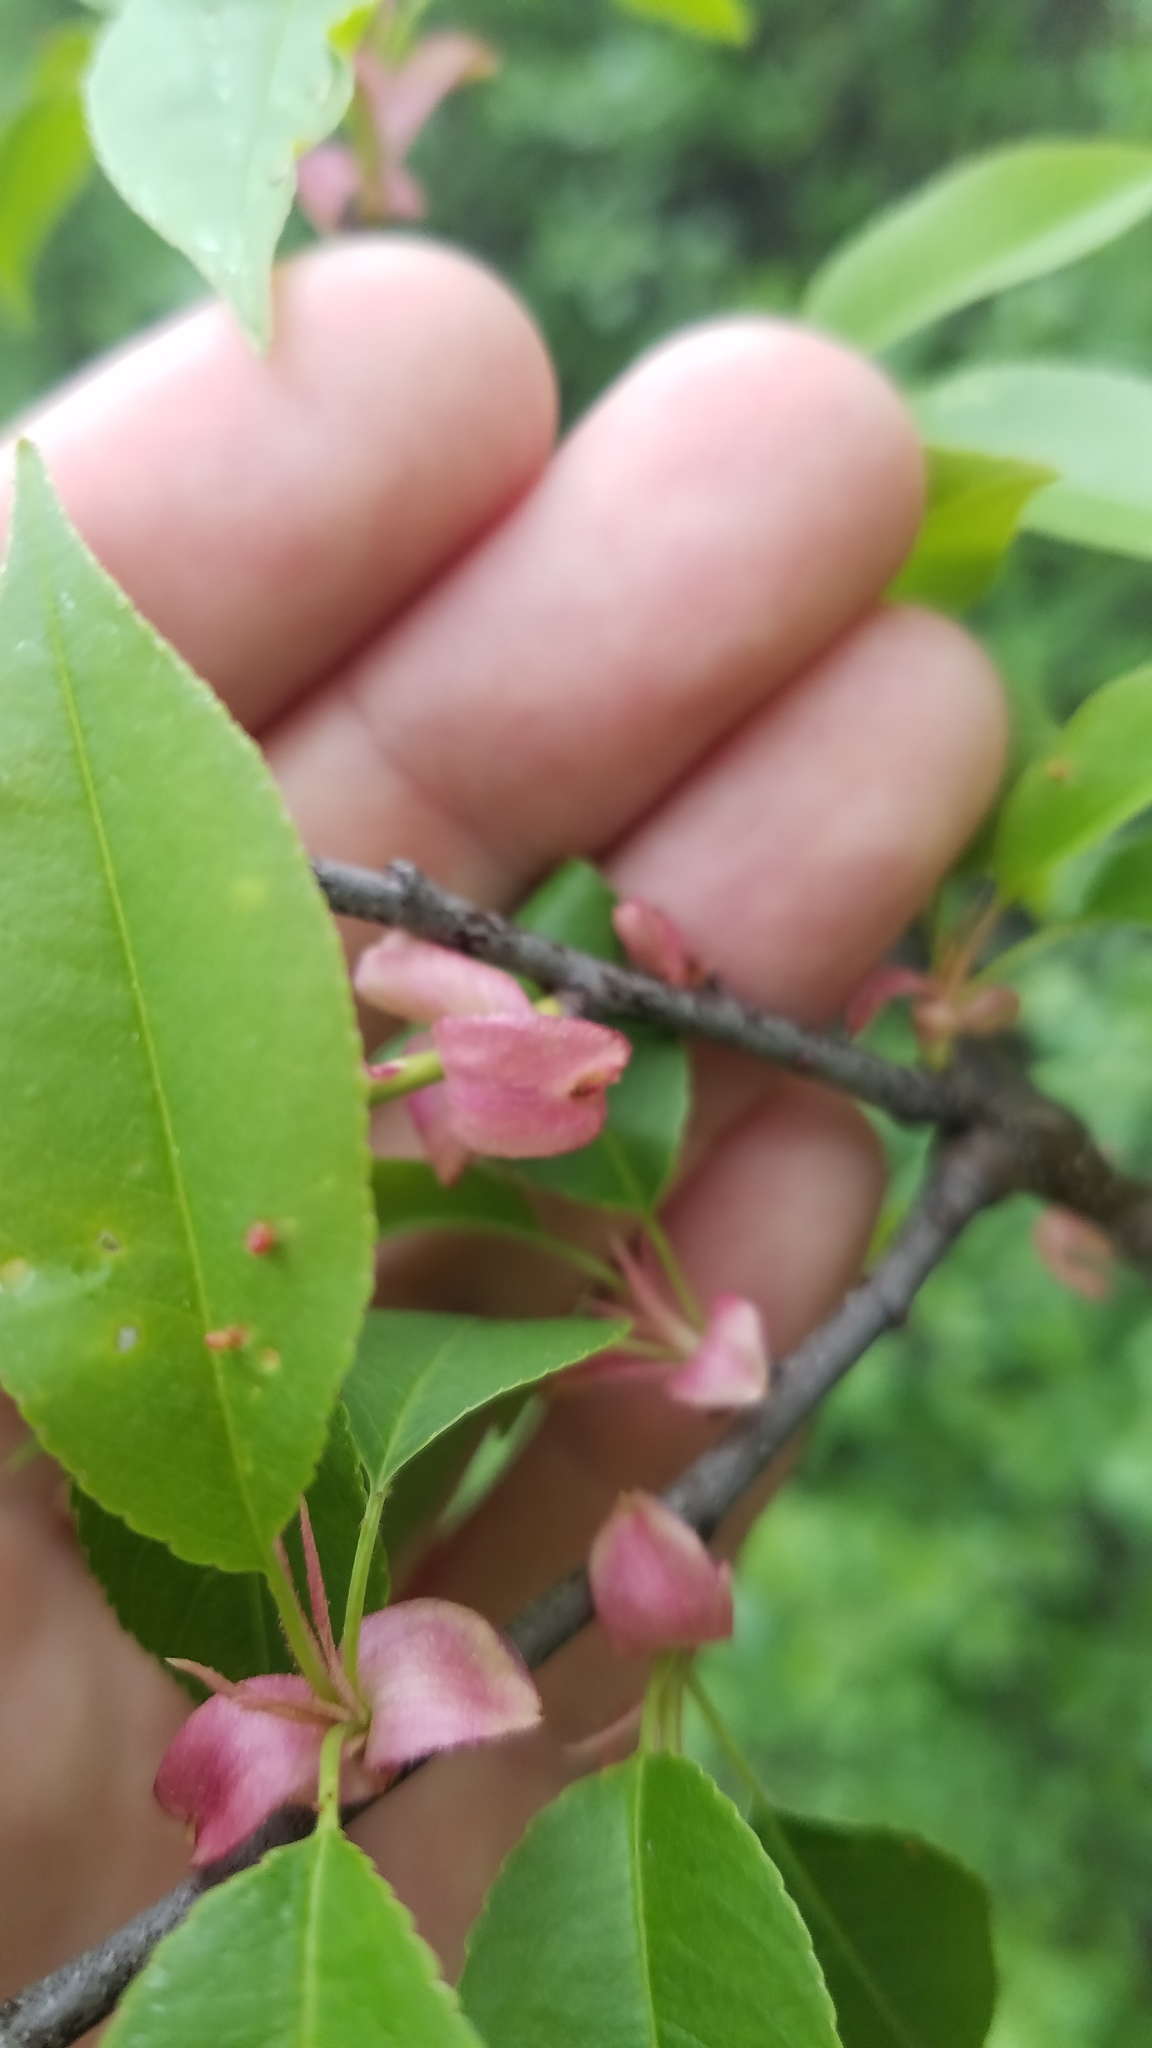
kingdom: Animalia
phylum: Arthropoda
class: Arachnida
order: Trombidiformes
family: Eriophyidae
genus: Eriophyes
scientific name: Eriophyes
